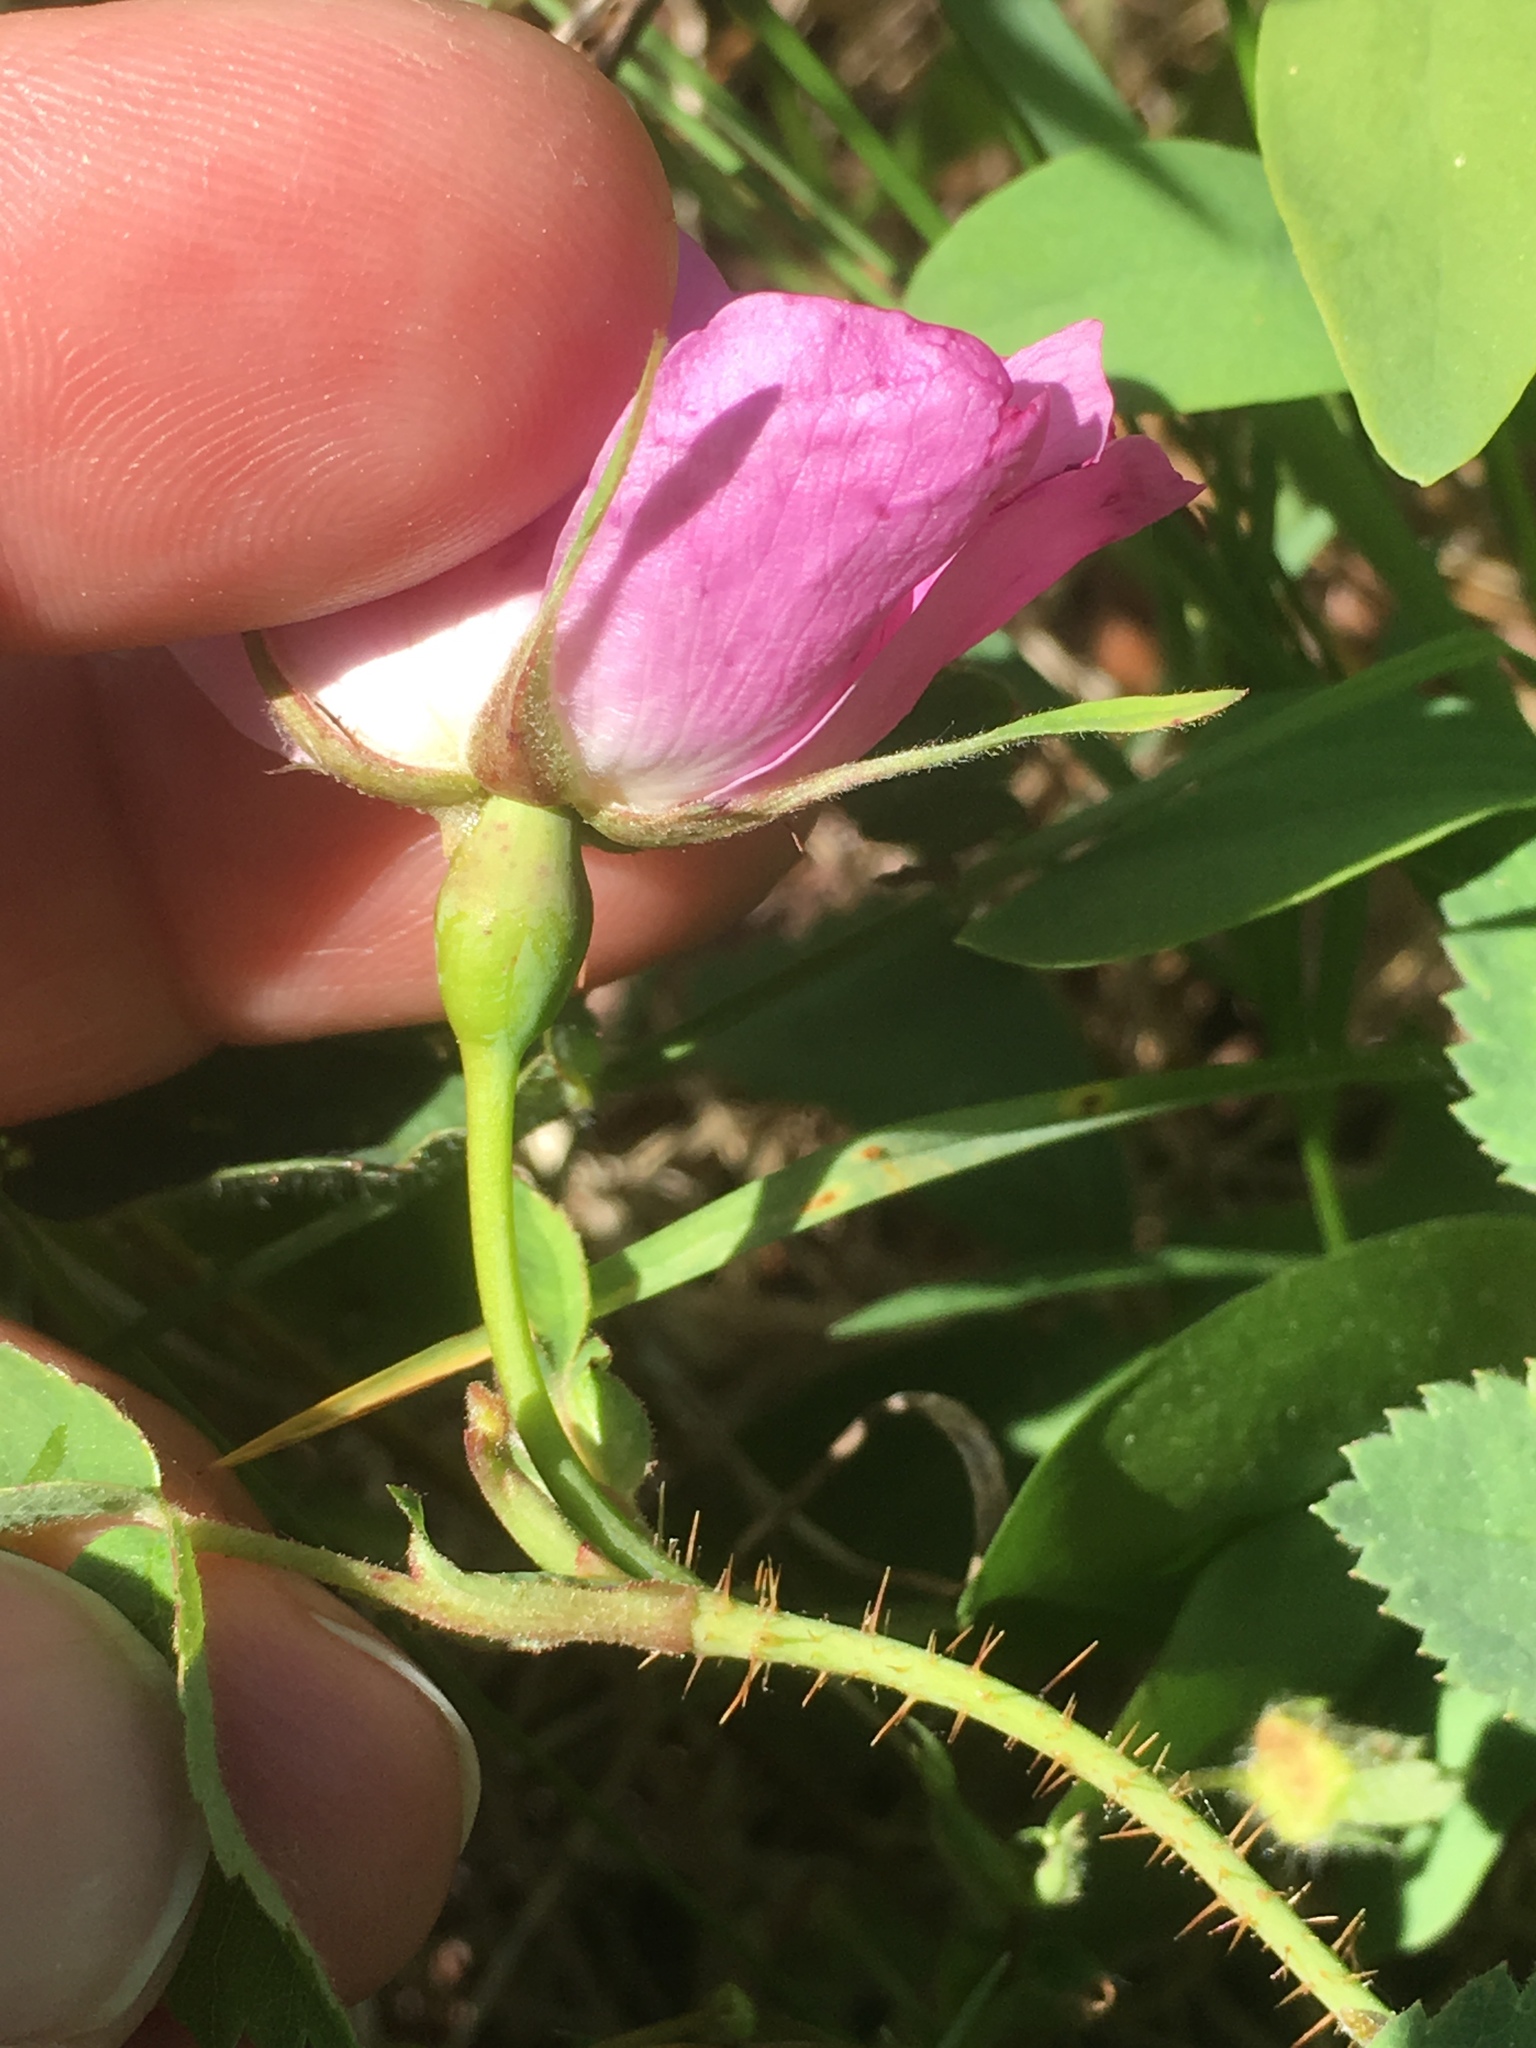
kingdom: Plantae
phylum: Tracheophyta
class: Magnoliopsida
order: Rosales
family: Rosaceae
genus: Rosa
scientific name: Rosa acicularis
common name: Prickly rose
